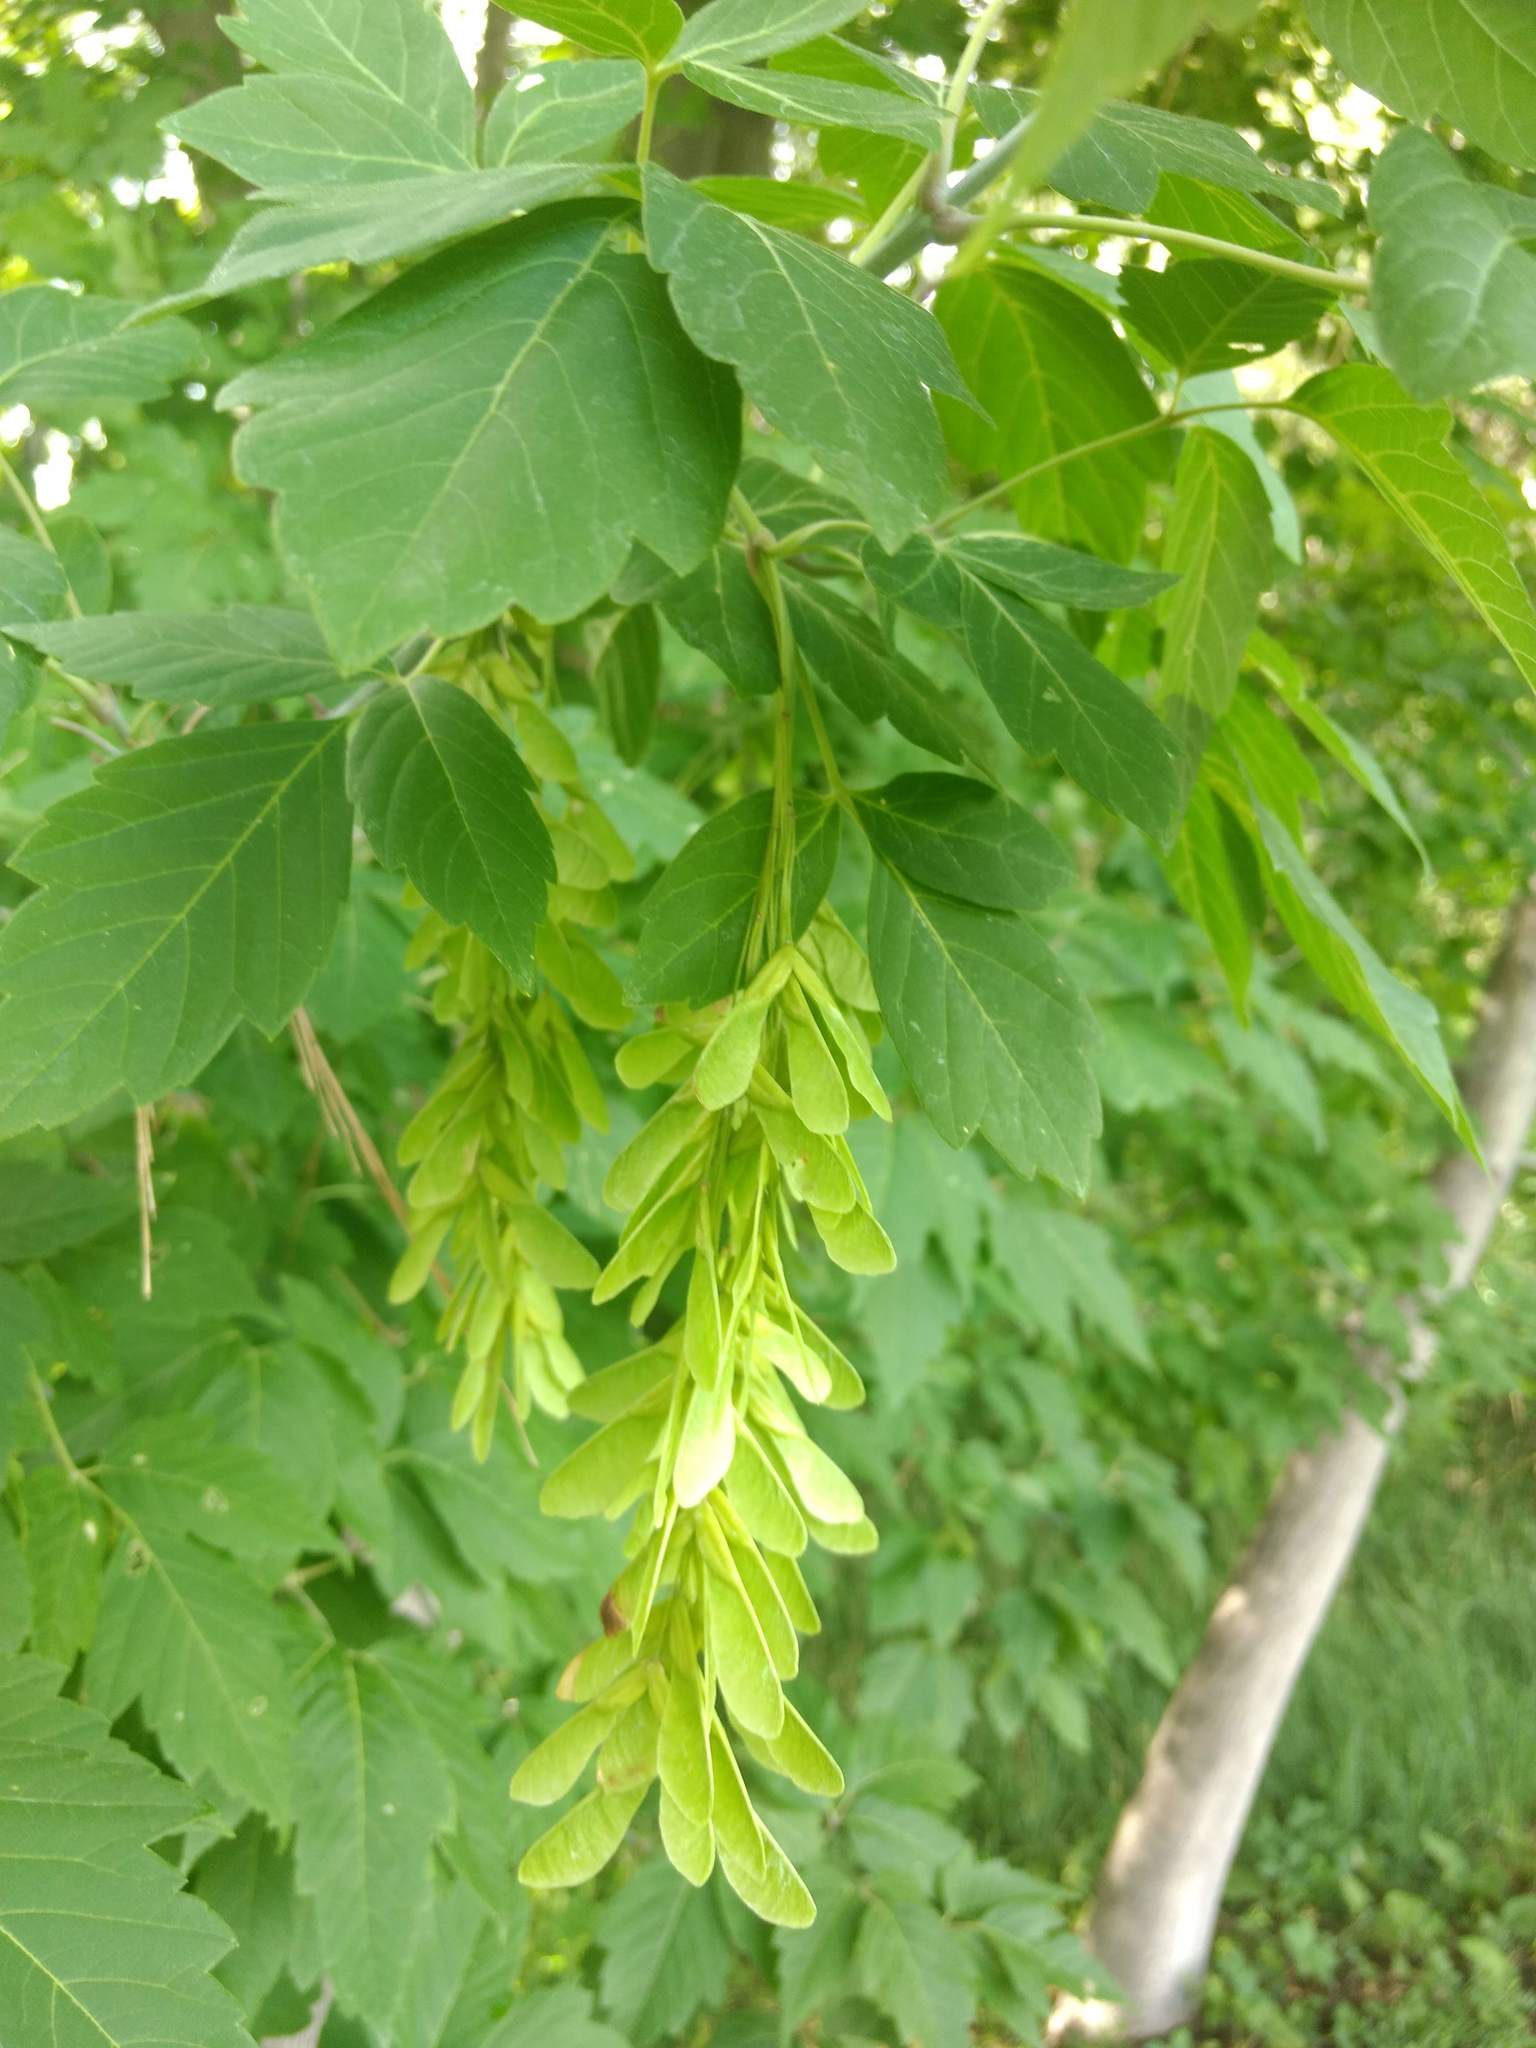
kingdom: Plantae
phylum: Tracheophyta
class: Magnoliopsida
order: Sapindales
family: Sapindaceae
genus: Acer
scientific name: Acer negundo
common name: Ashleaf maple
